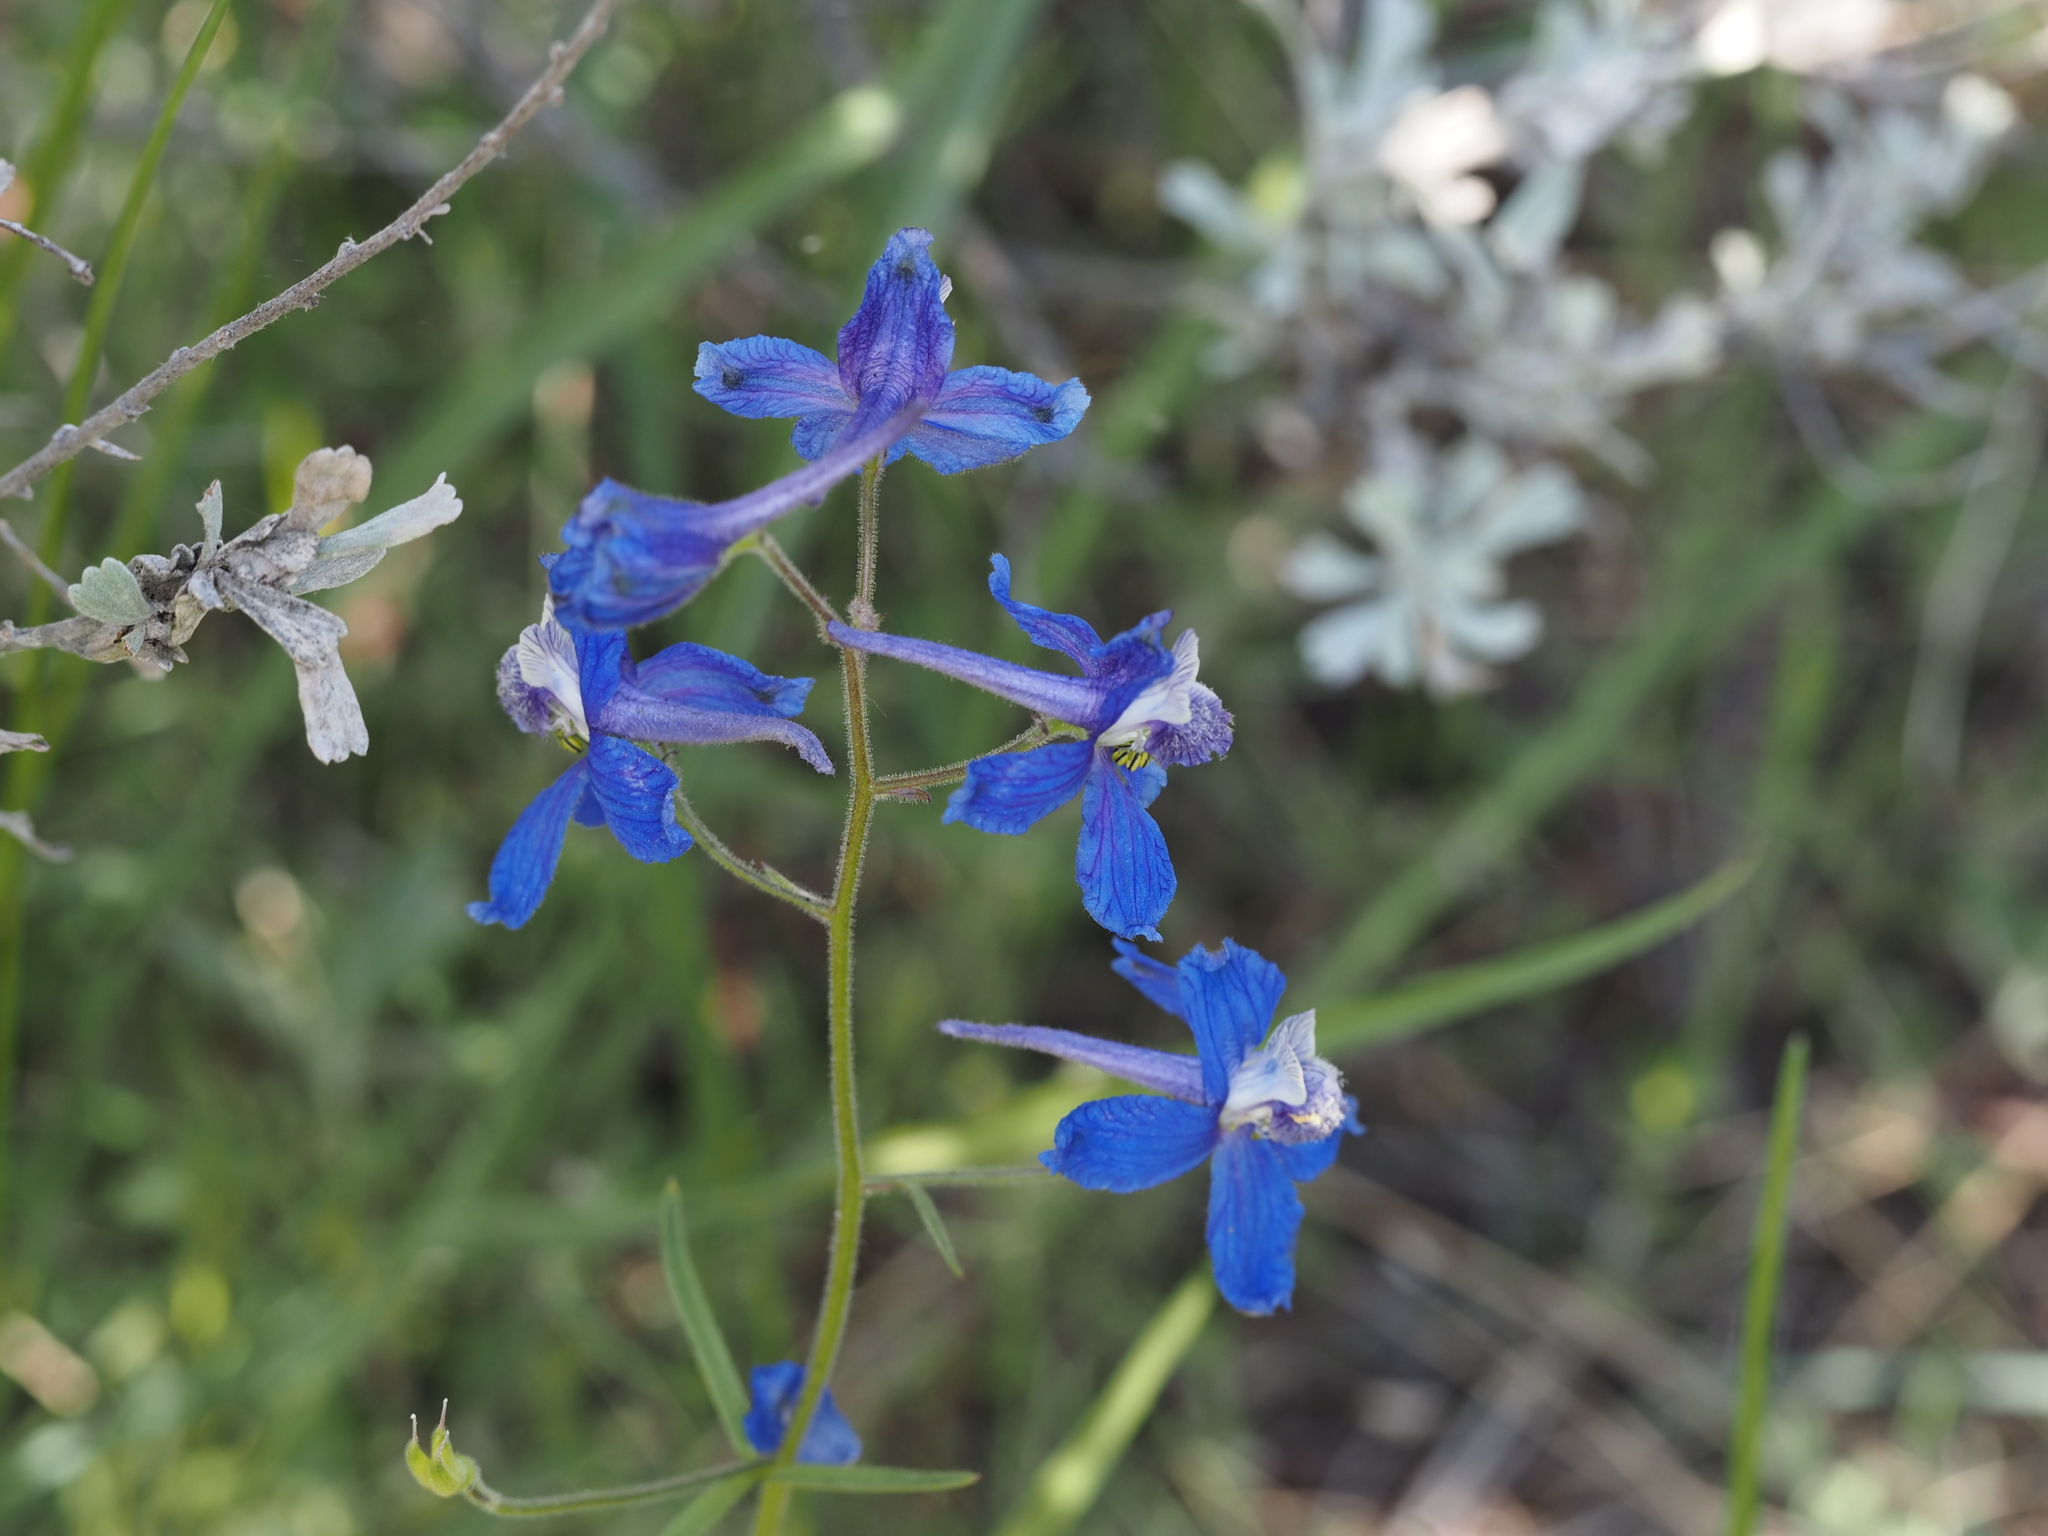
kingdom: Plantae
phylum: Tracheophyta
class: Magnoliopsida
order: Ranunculales
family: Ranunculaceae
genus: Delphinium
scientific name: Delphinium nuttallianum
